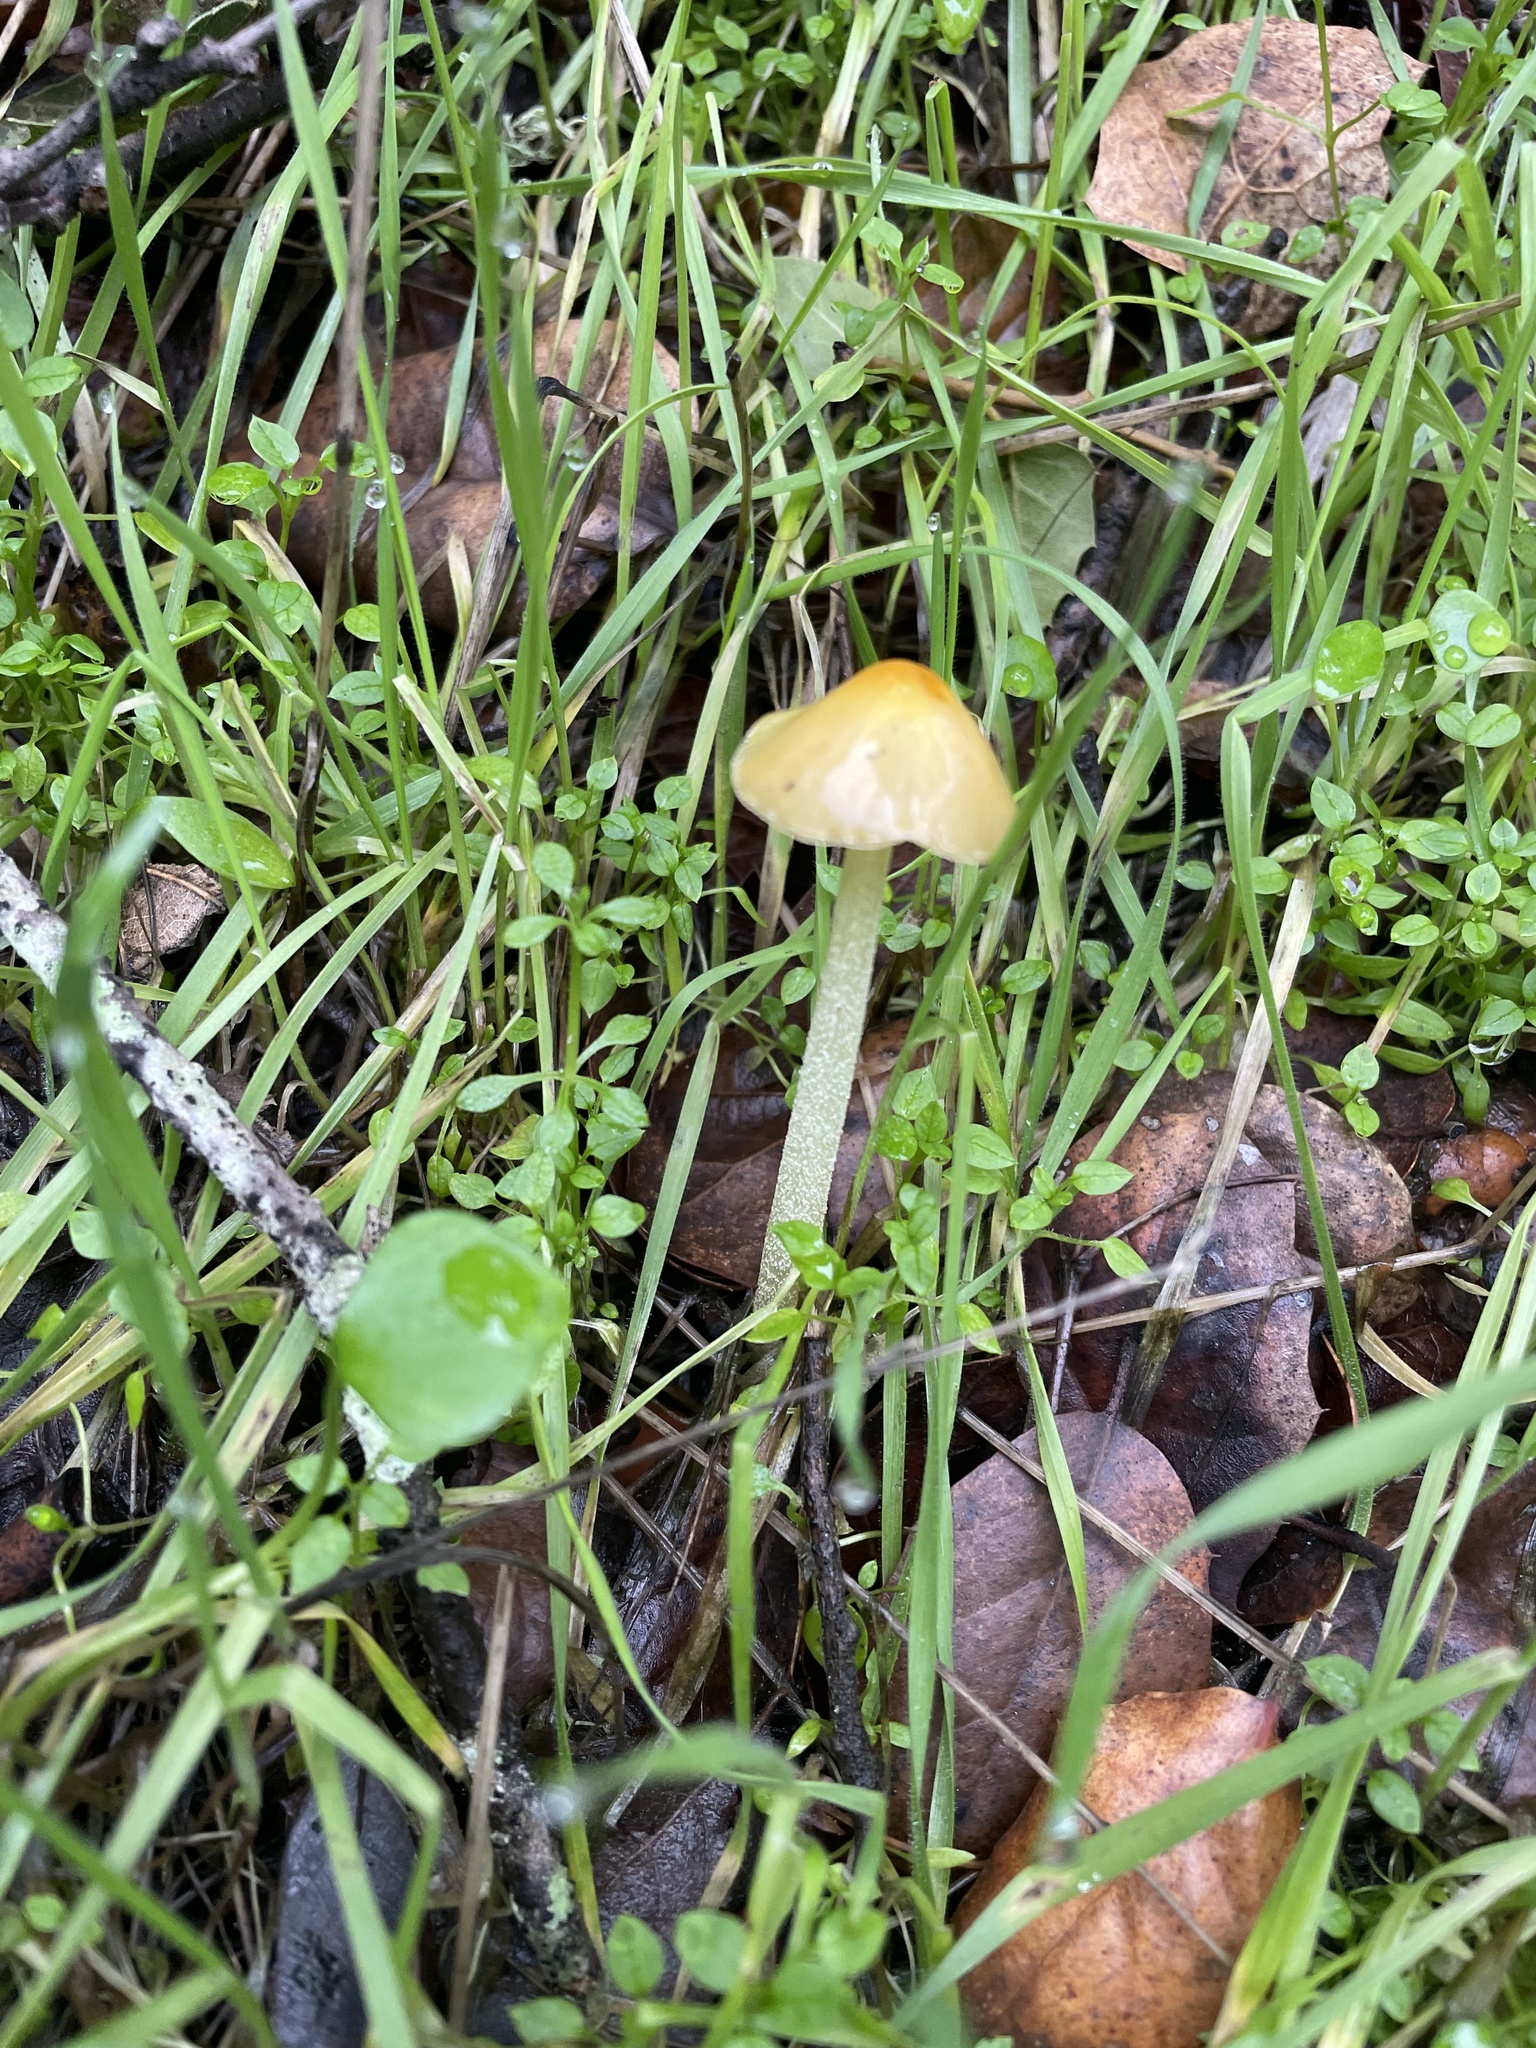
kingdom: Fungi
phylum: Basidiomycota
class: Agaricomycetes
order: Agaricales
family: Bolbitiaceae
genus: Bolbitius
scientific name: Bolbitius titubans
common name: Yellow fieldcap
